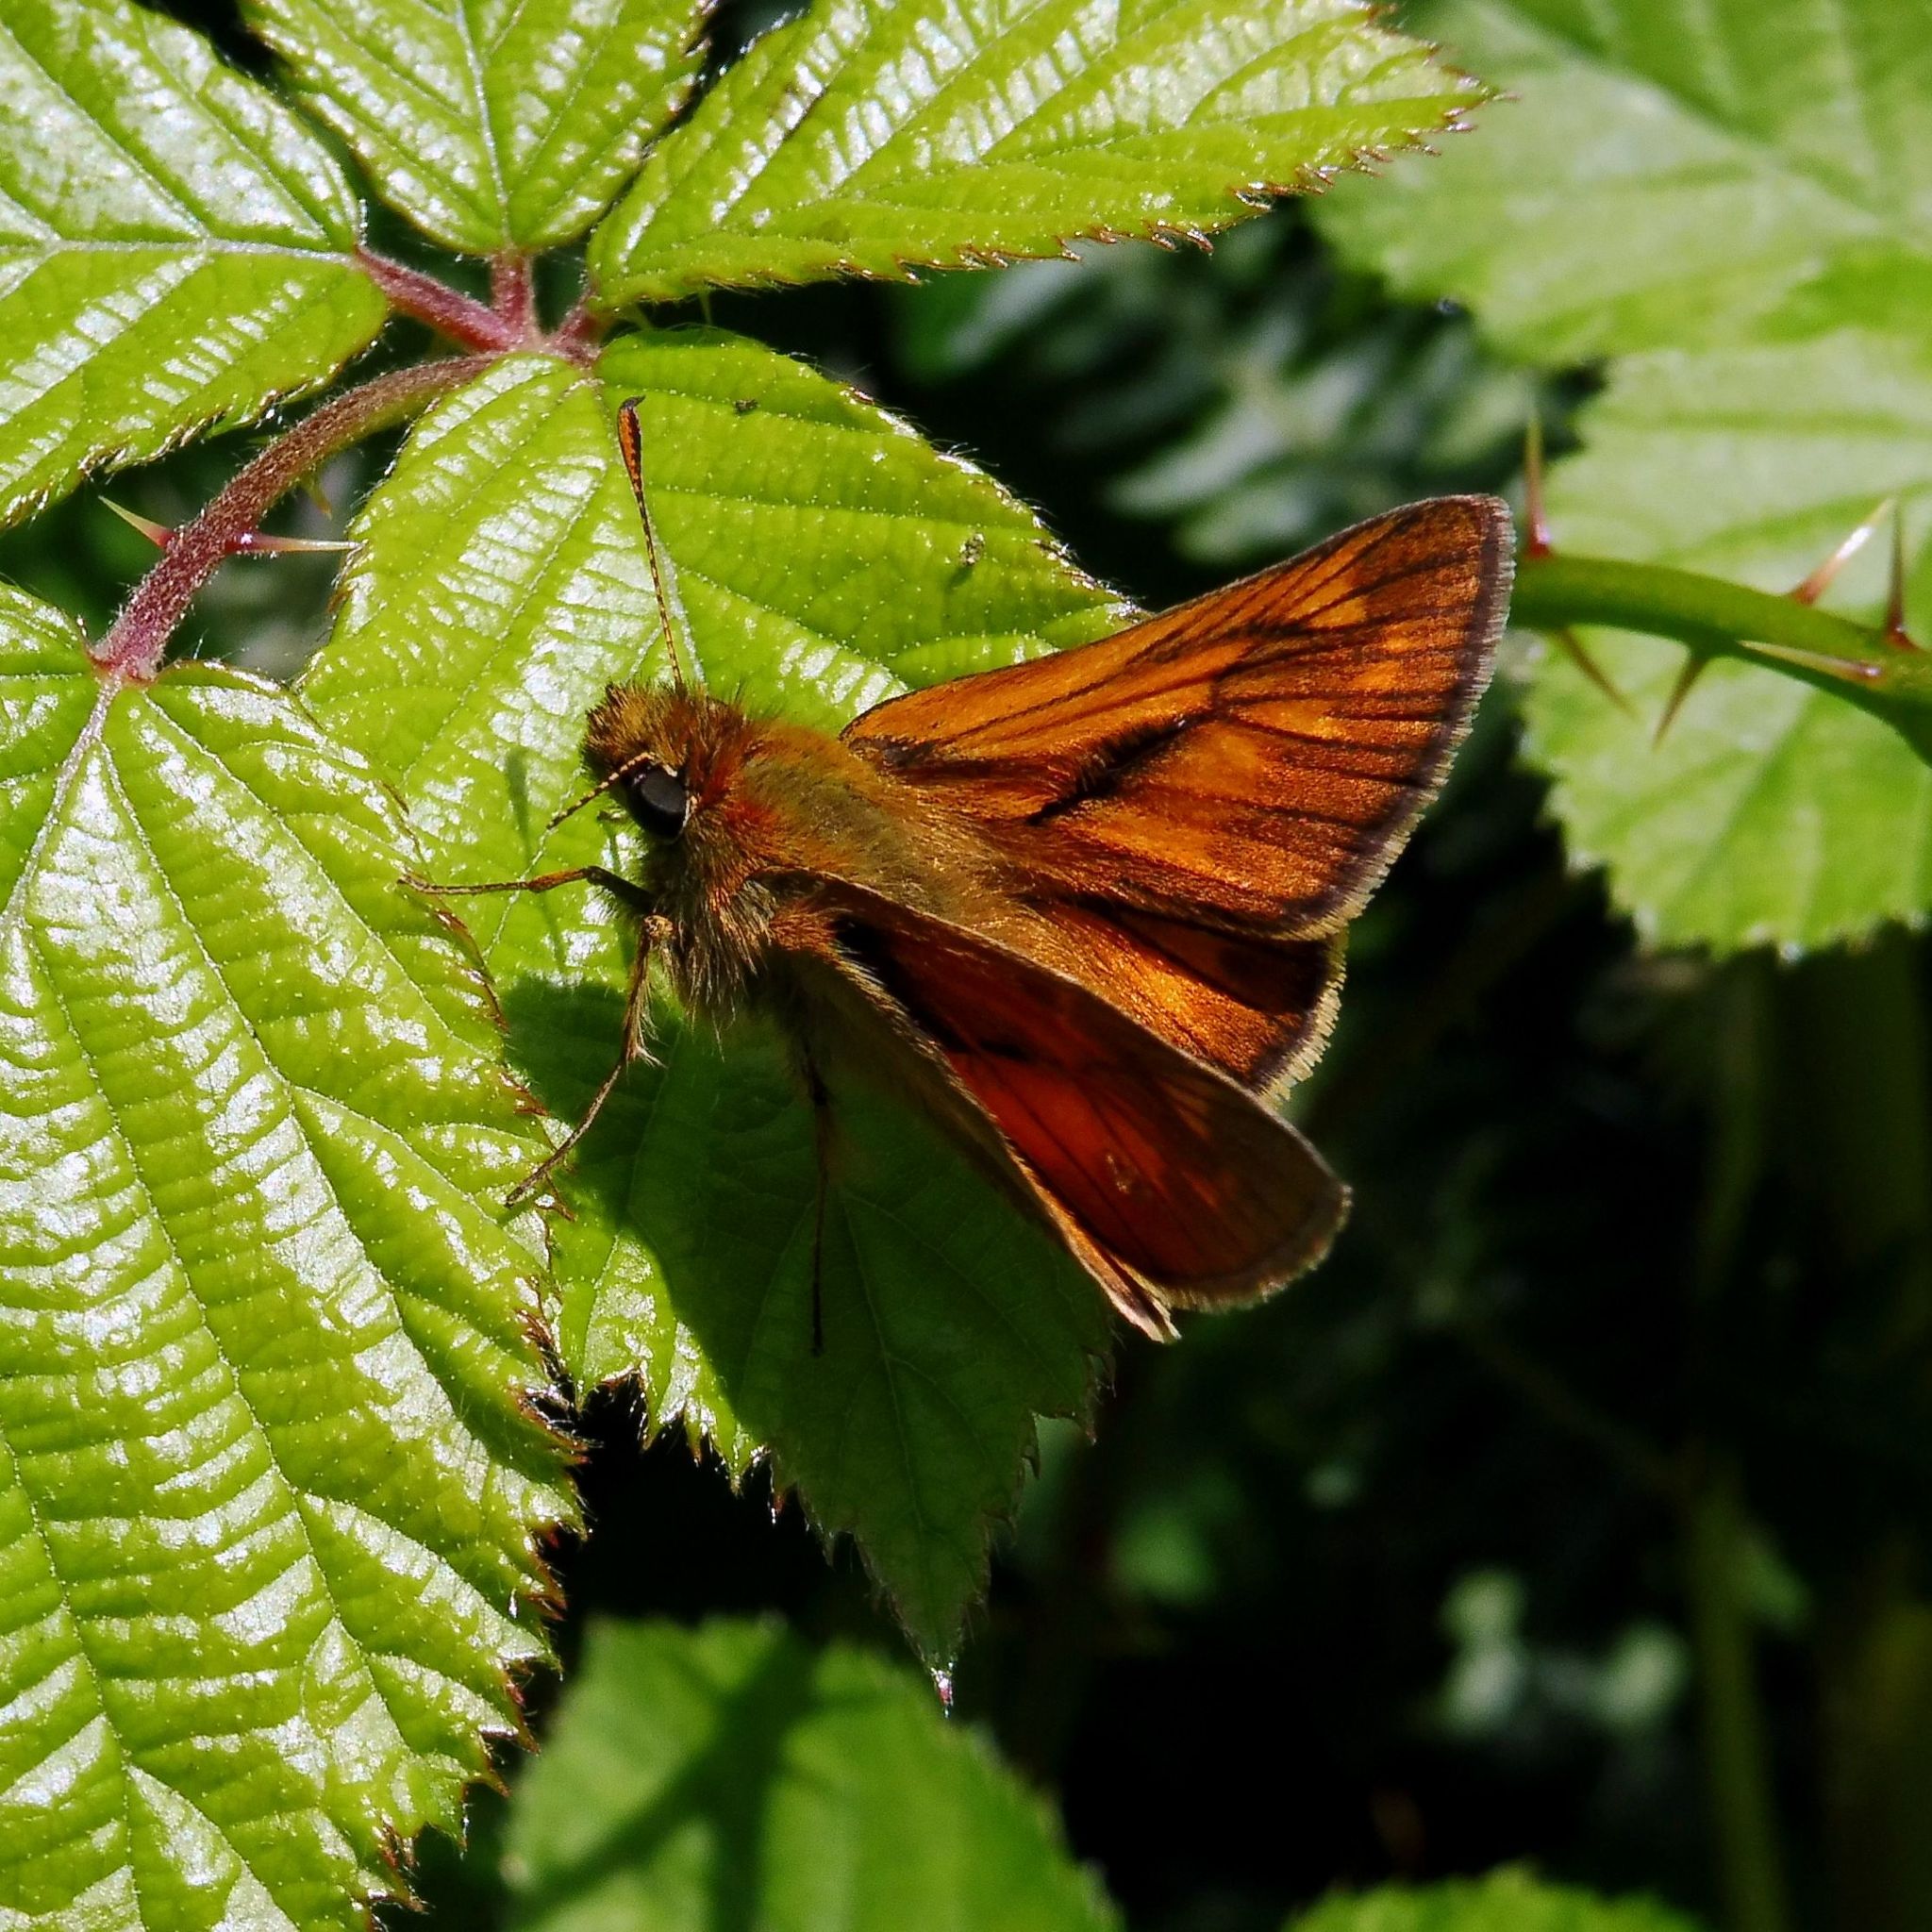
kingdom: Animalia
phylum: Arthropoda
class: Insecta
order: Lepidoptera
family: Hesperiidae
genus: Ochlodes
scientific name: Ochlodes venata
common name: Large skipper
